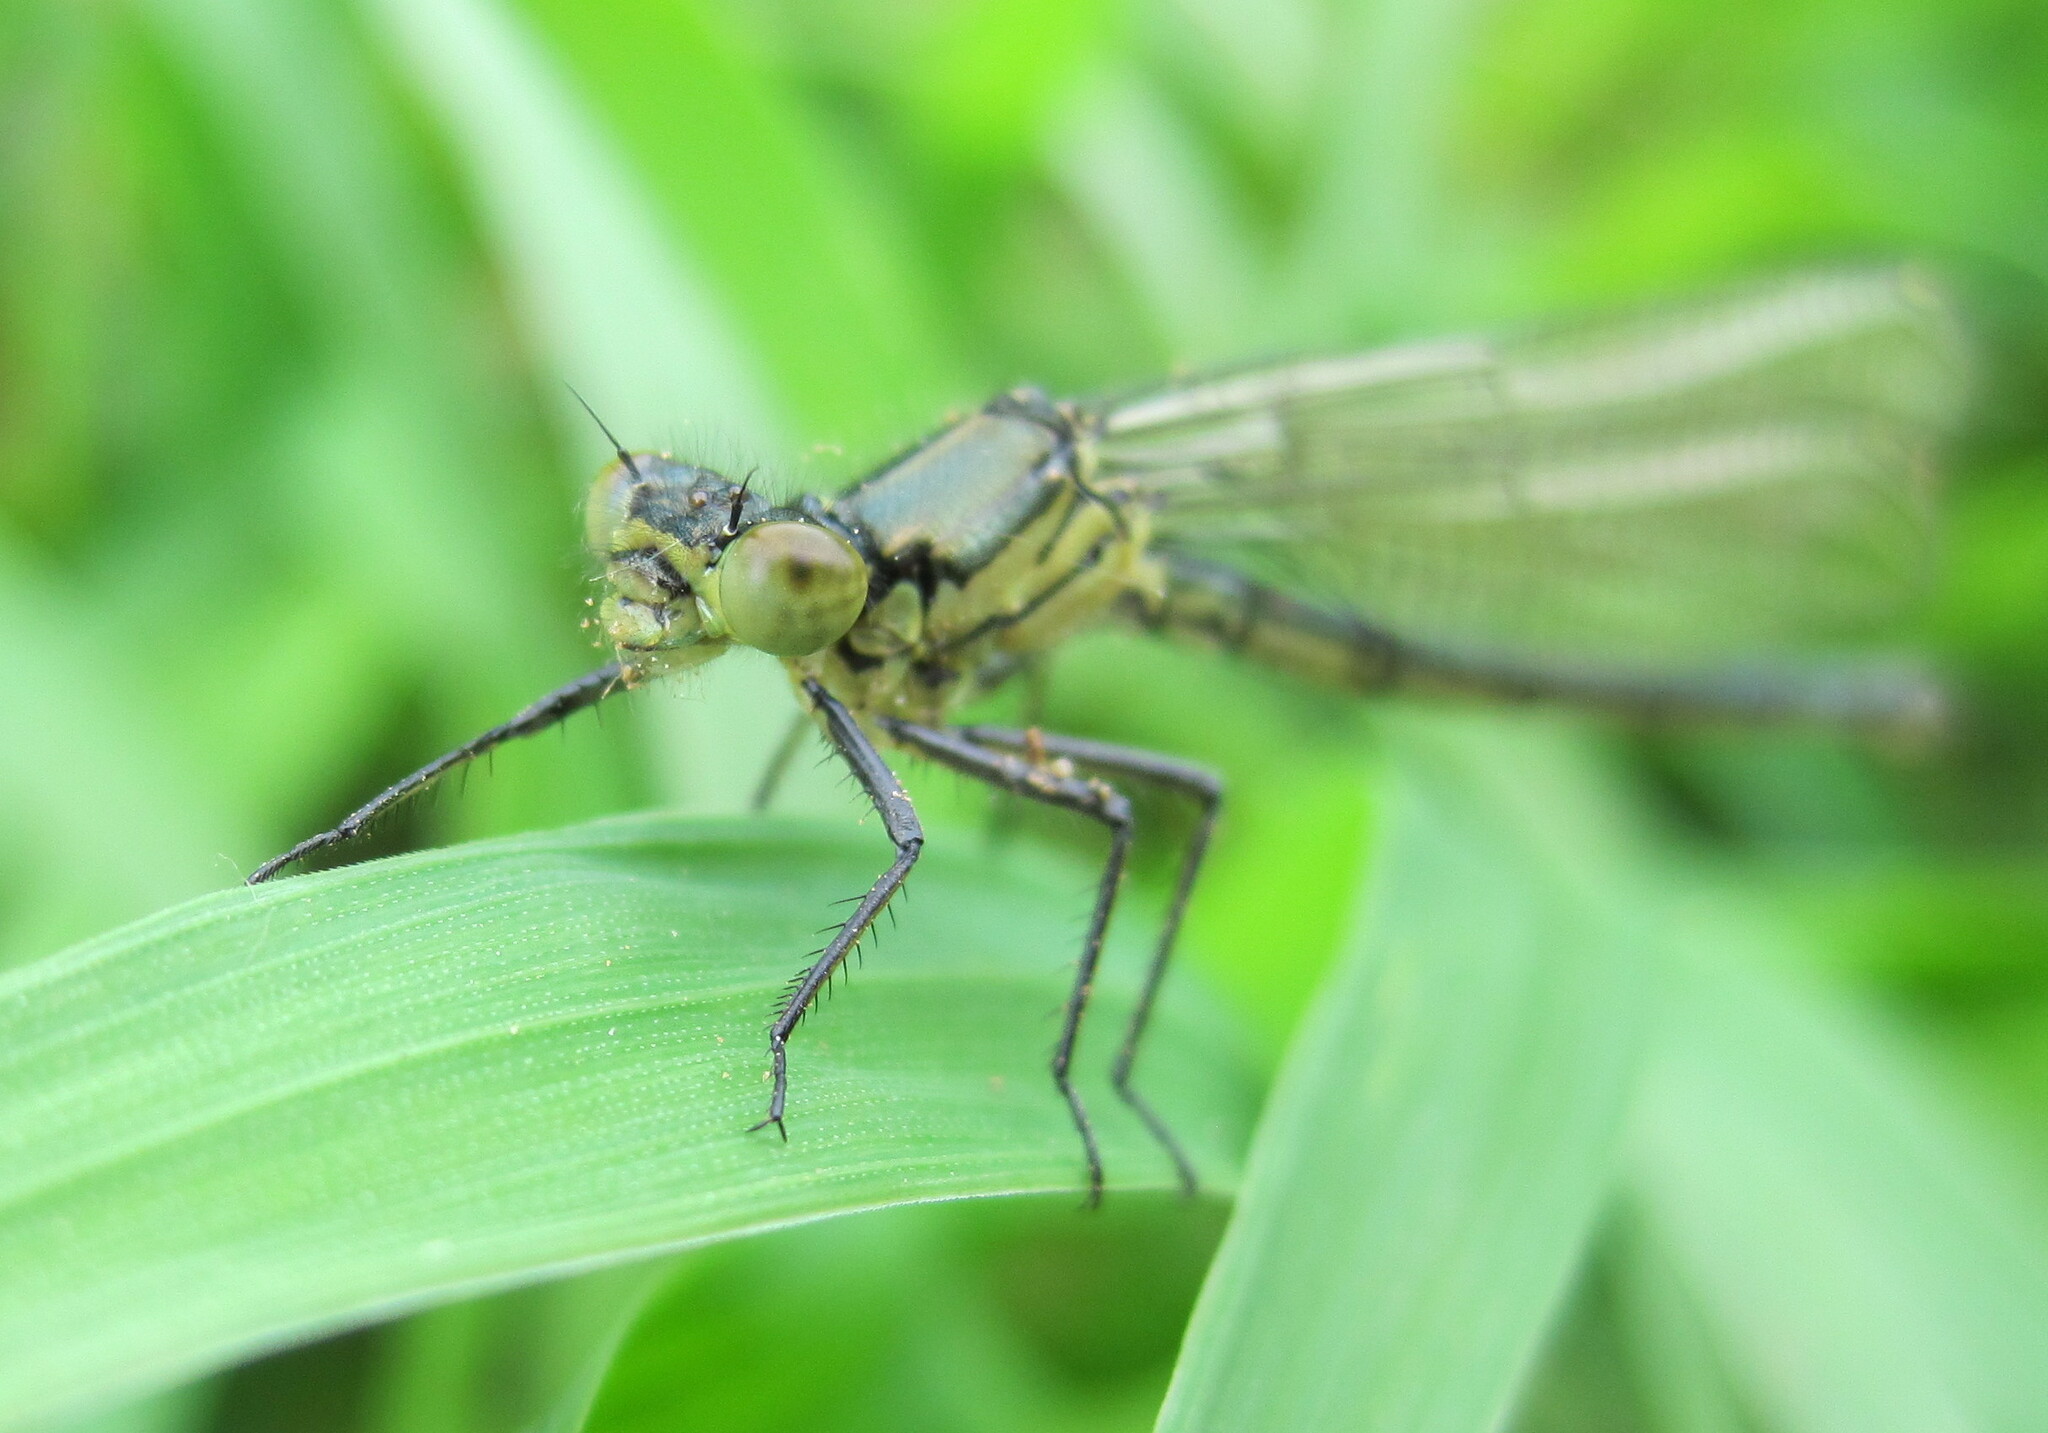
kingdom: Animalia
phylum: Arthropoda
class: Insecta
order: Odonata
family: Coenagrionidae
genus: Erythromma
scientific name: Erythromma najas
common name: Red-eyed damselfly
